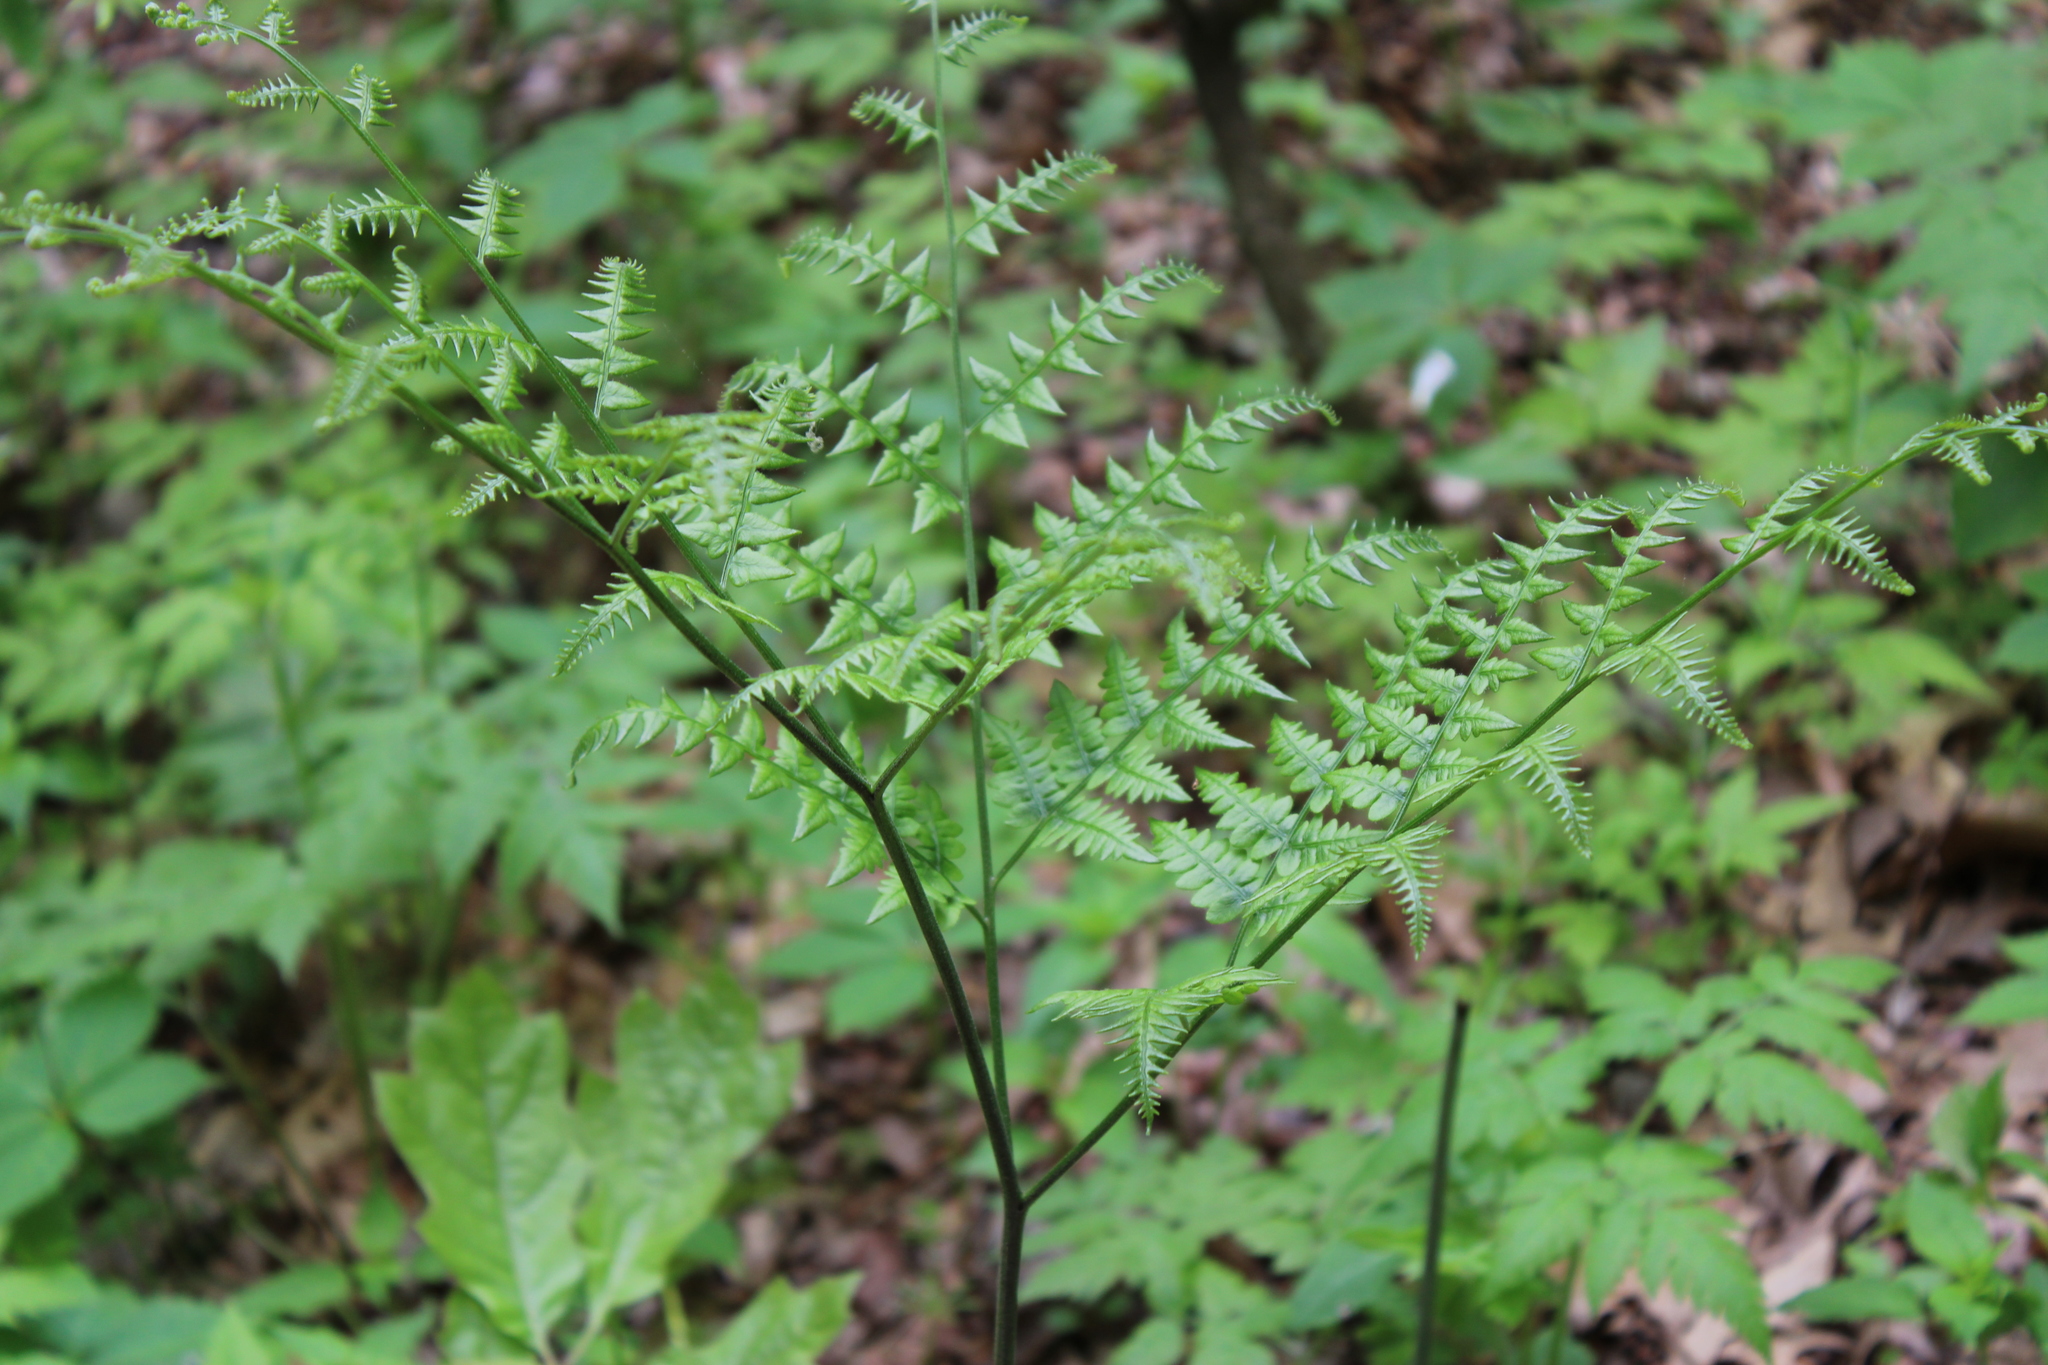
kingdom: Plantae
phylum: Tracheophyta
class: Polypodiopsida
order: Polypodiales
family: Dennstaedtiaceae
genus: Pteridium
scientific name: Pteridium aquilinum
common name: Bracken
